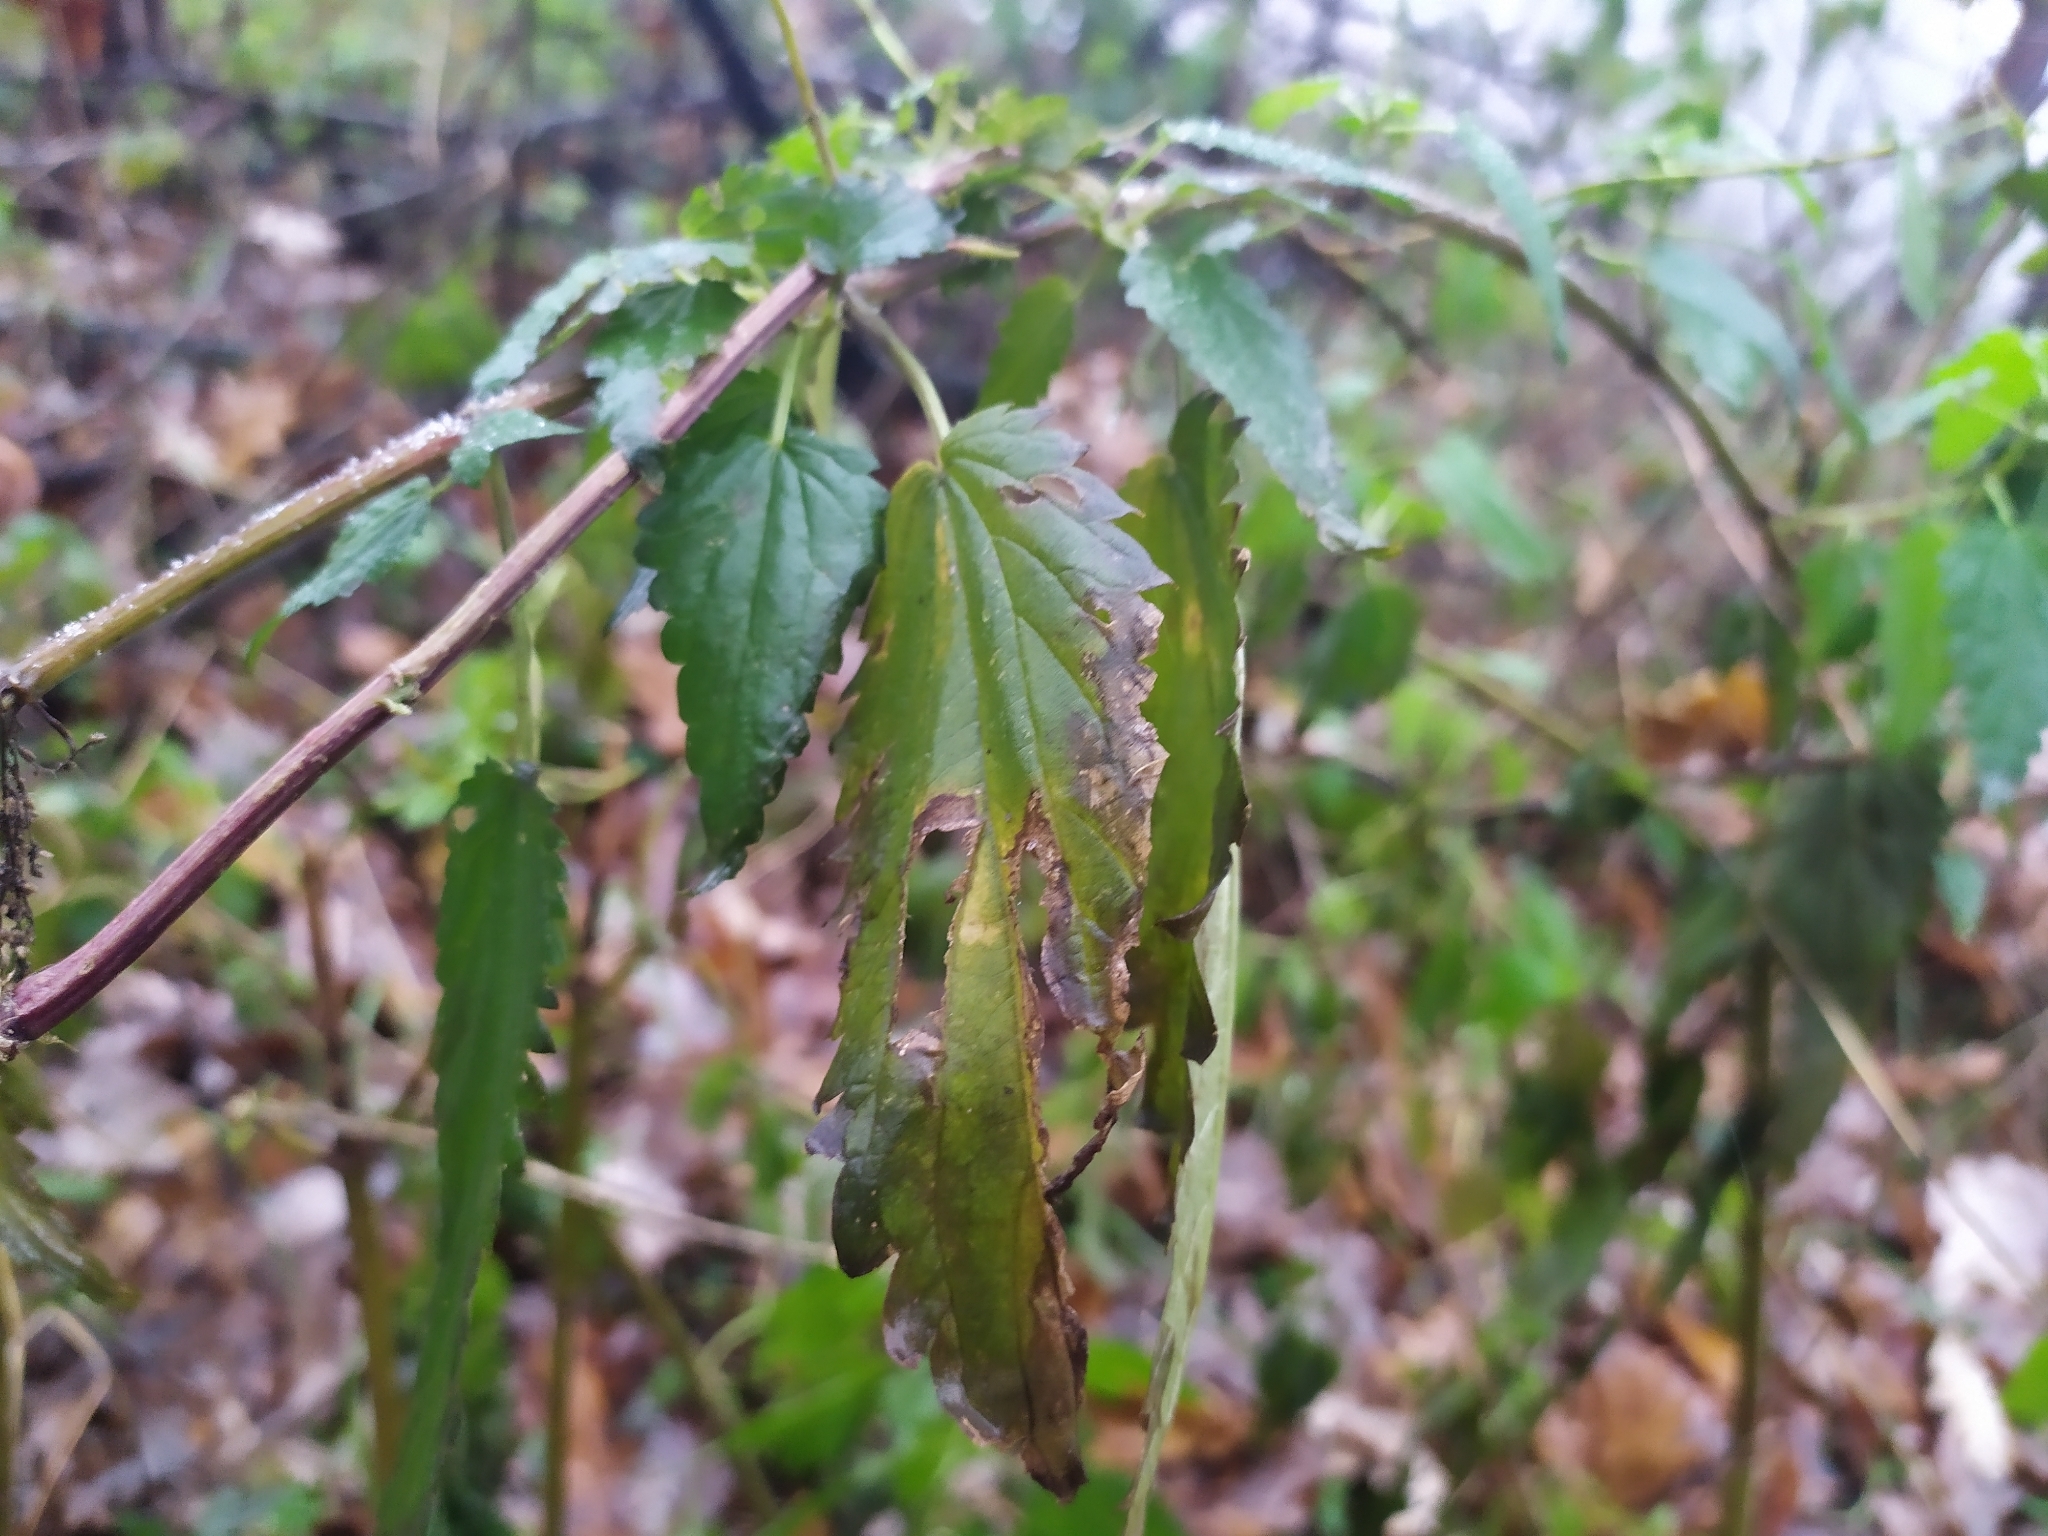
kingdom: Plantae
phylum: Tracheophyta
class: Magnoliopsida
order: Rosales
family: Urticaceae
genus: Urtica
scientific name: Urtica dioica
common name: Common nettle
